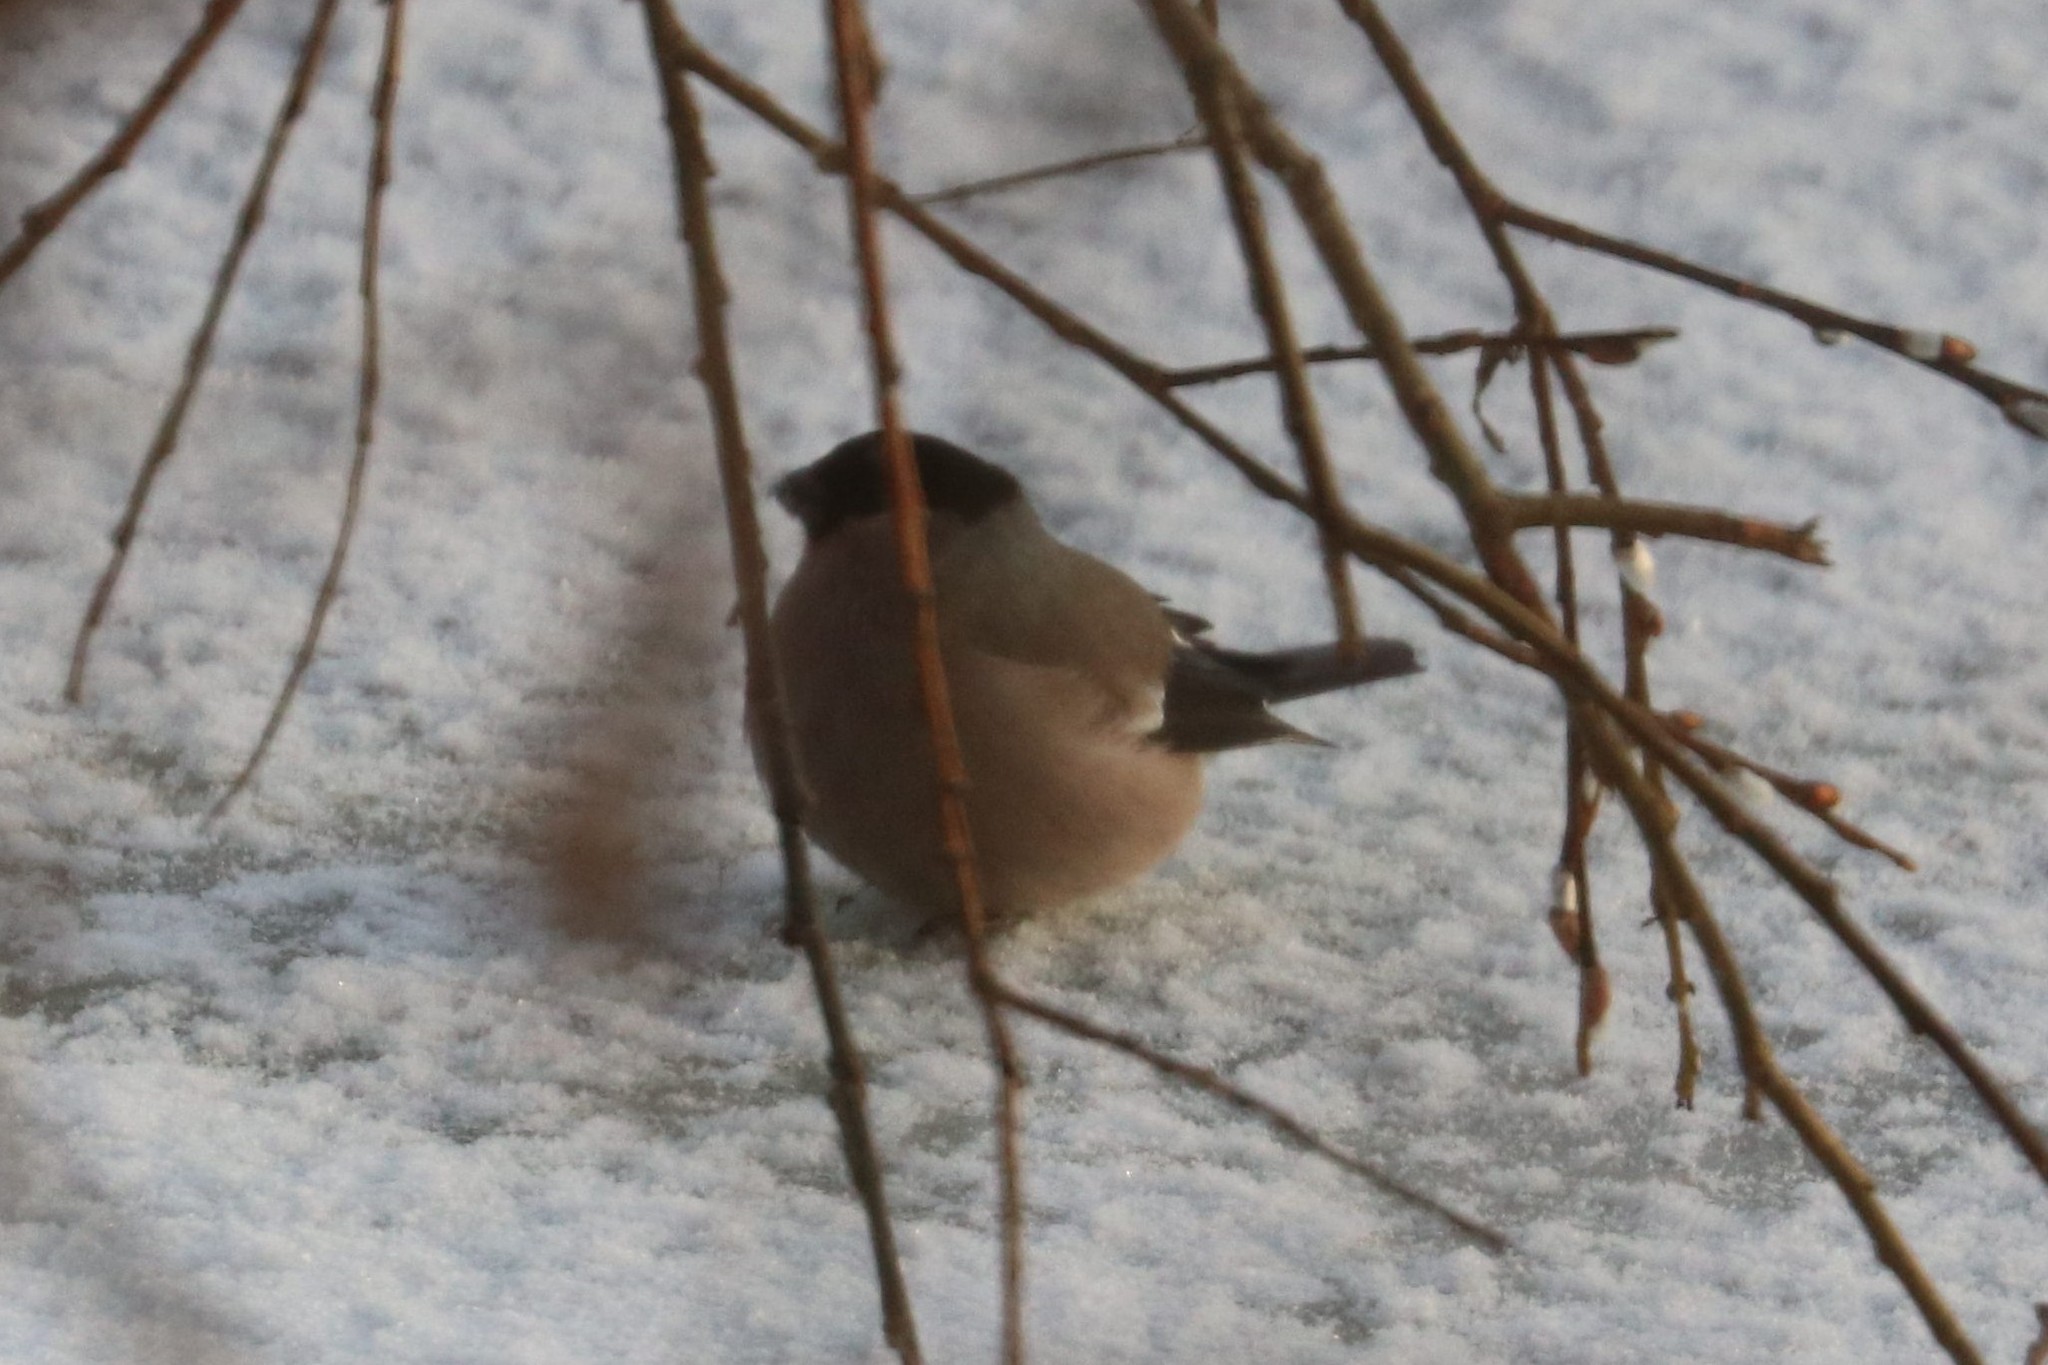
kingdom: Animalia
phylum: Chordata
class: Aves
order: Passeriformes
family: Fringillidae
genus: Pyrrhula
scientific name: Pyrrhula pyrrhula
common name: Eurasian bullfinch
